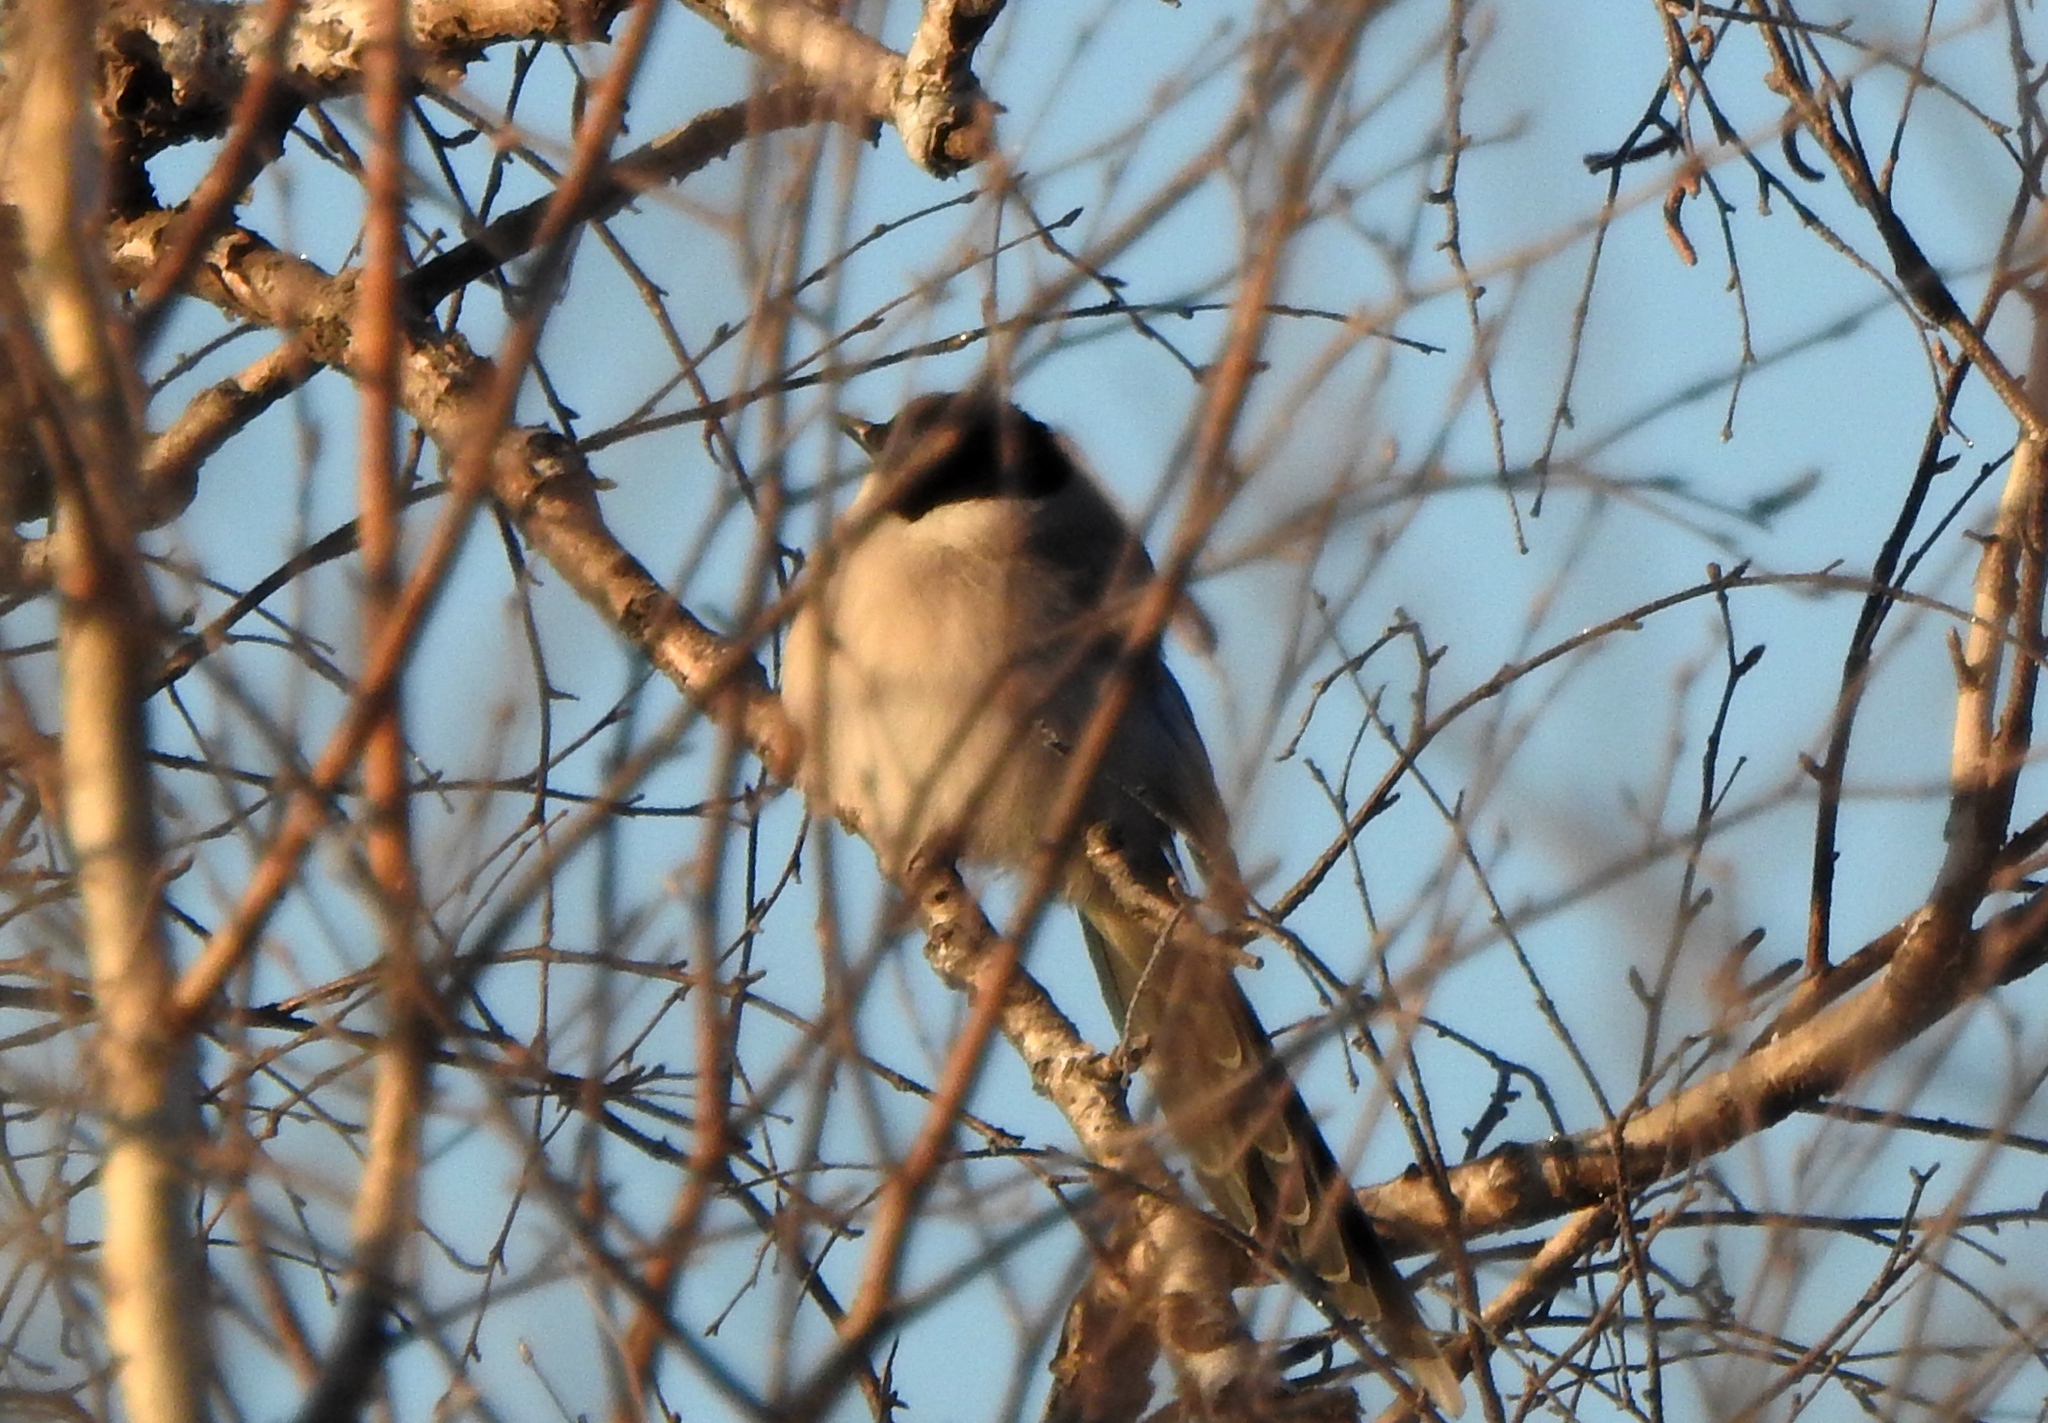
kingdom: Animalia
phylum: Chordata
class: Aves
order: Passeriformes
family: Corvidae
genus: Cyanopica
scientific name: Cyanopica cyanus
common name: Azure-winged magpie
